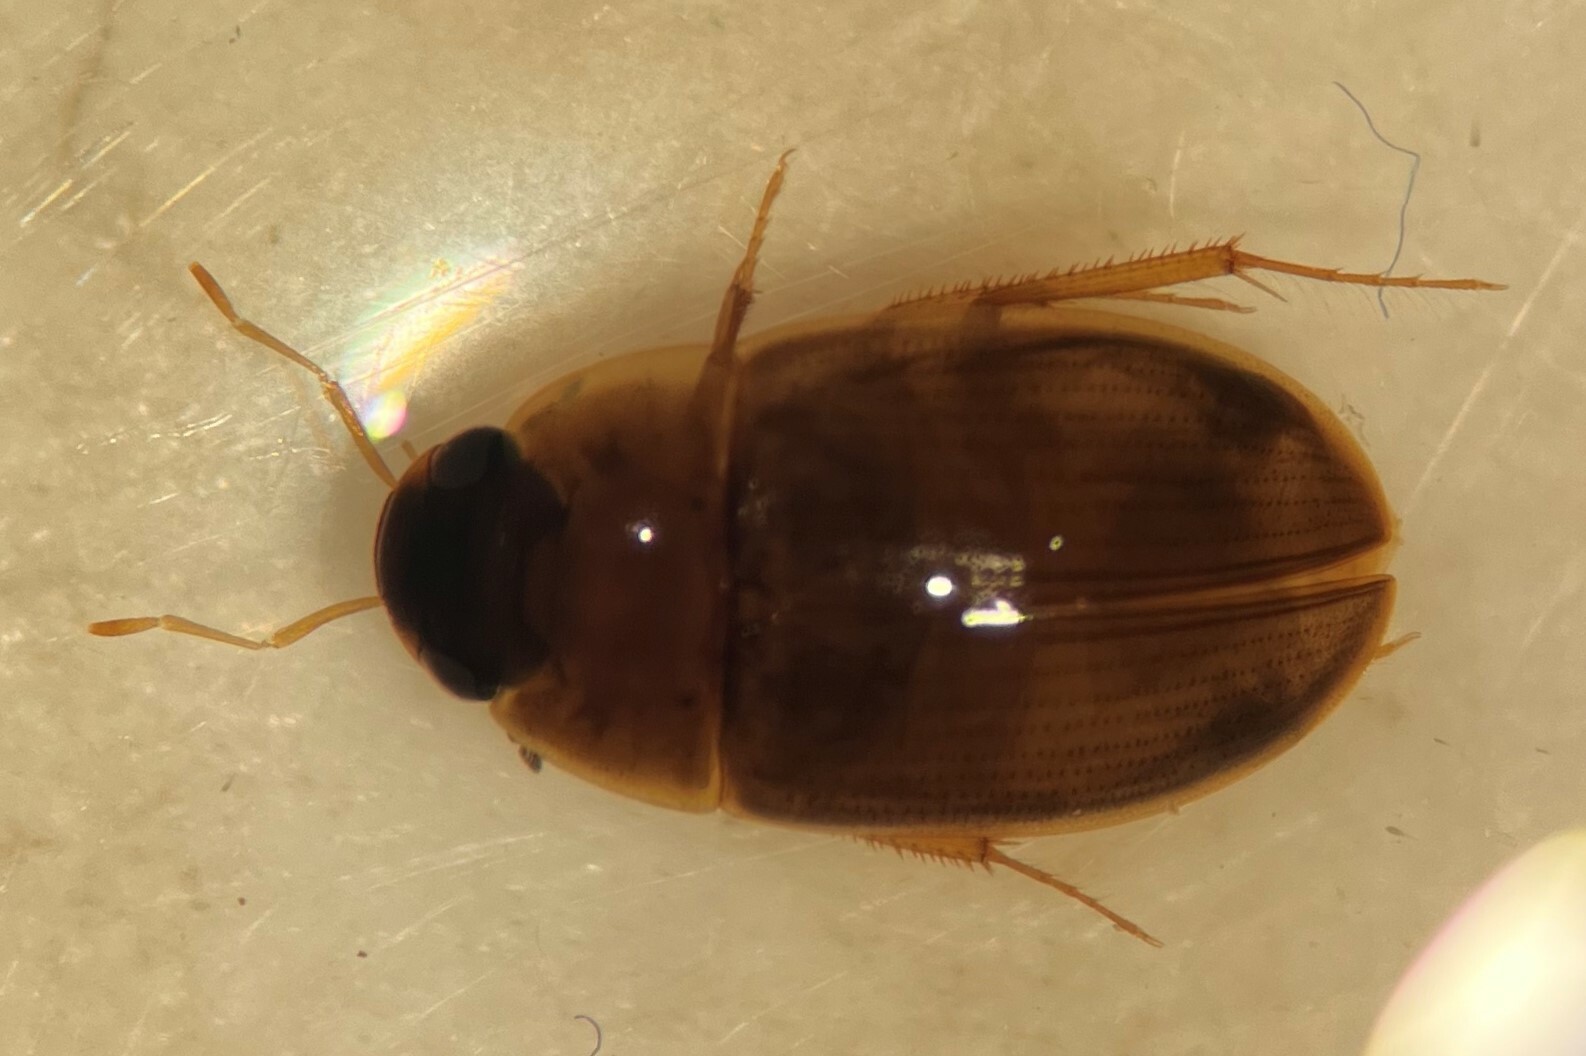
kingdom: Animalia
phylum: Arthropoda
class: Insecta
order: Coleoptera
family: Hydrophilidae
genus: Enochrus
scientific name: Enochrus grossi
